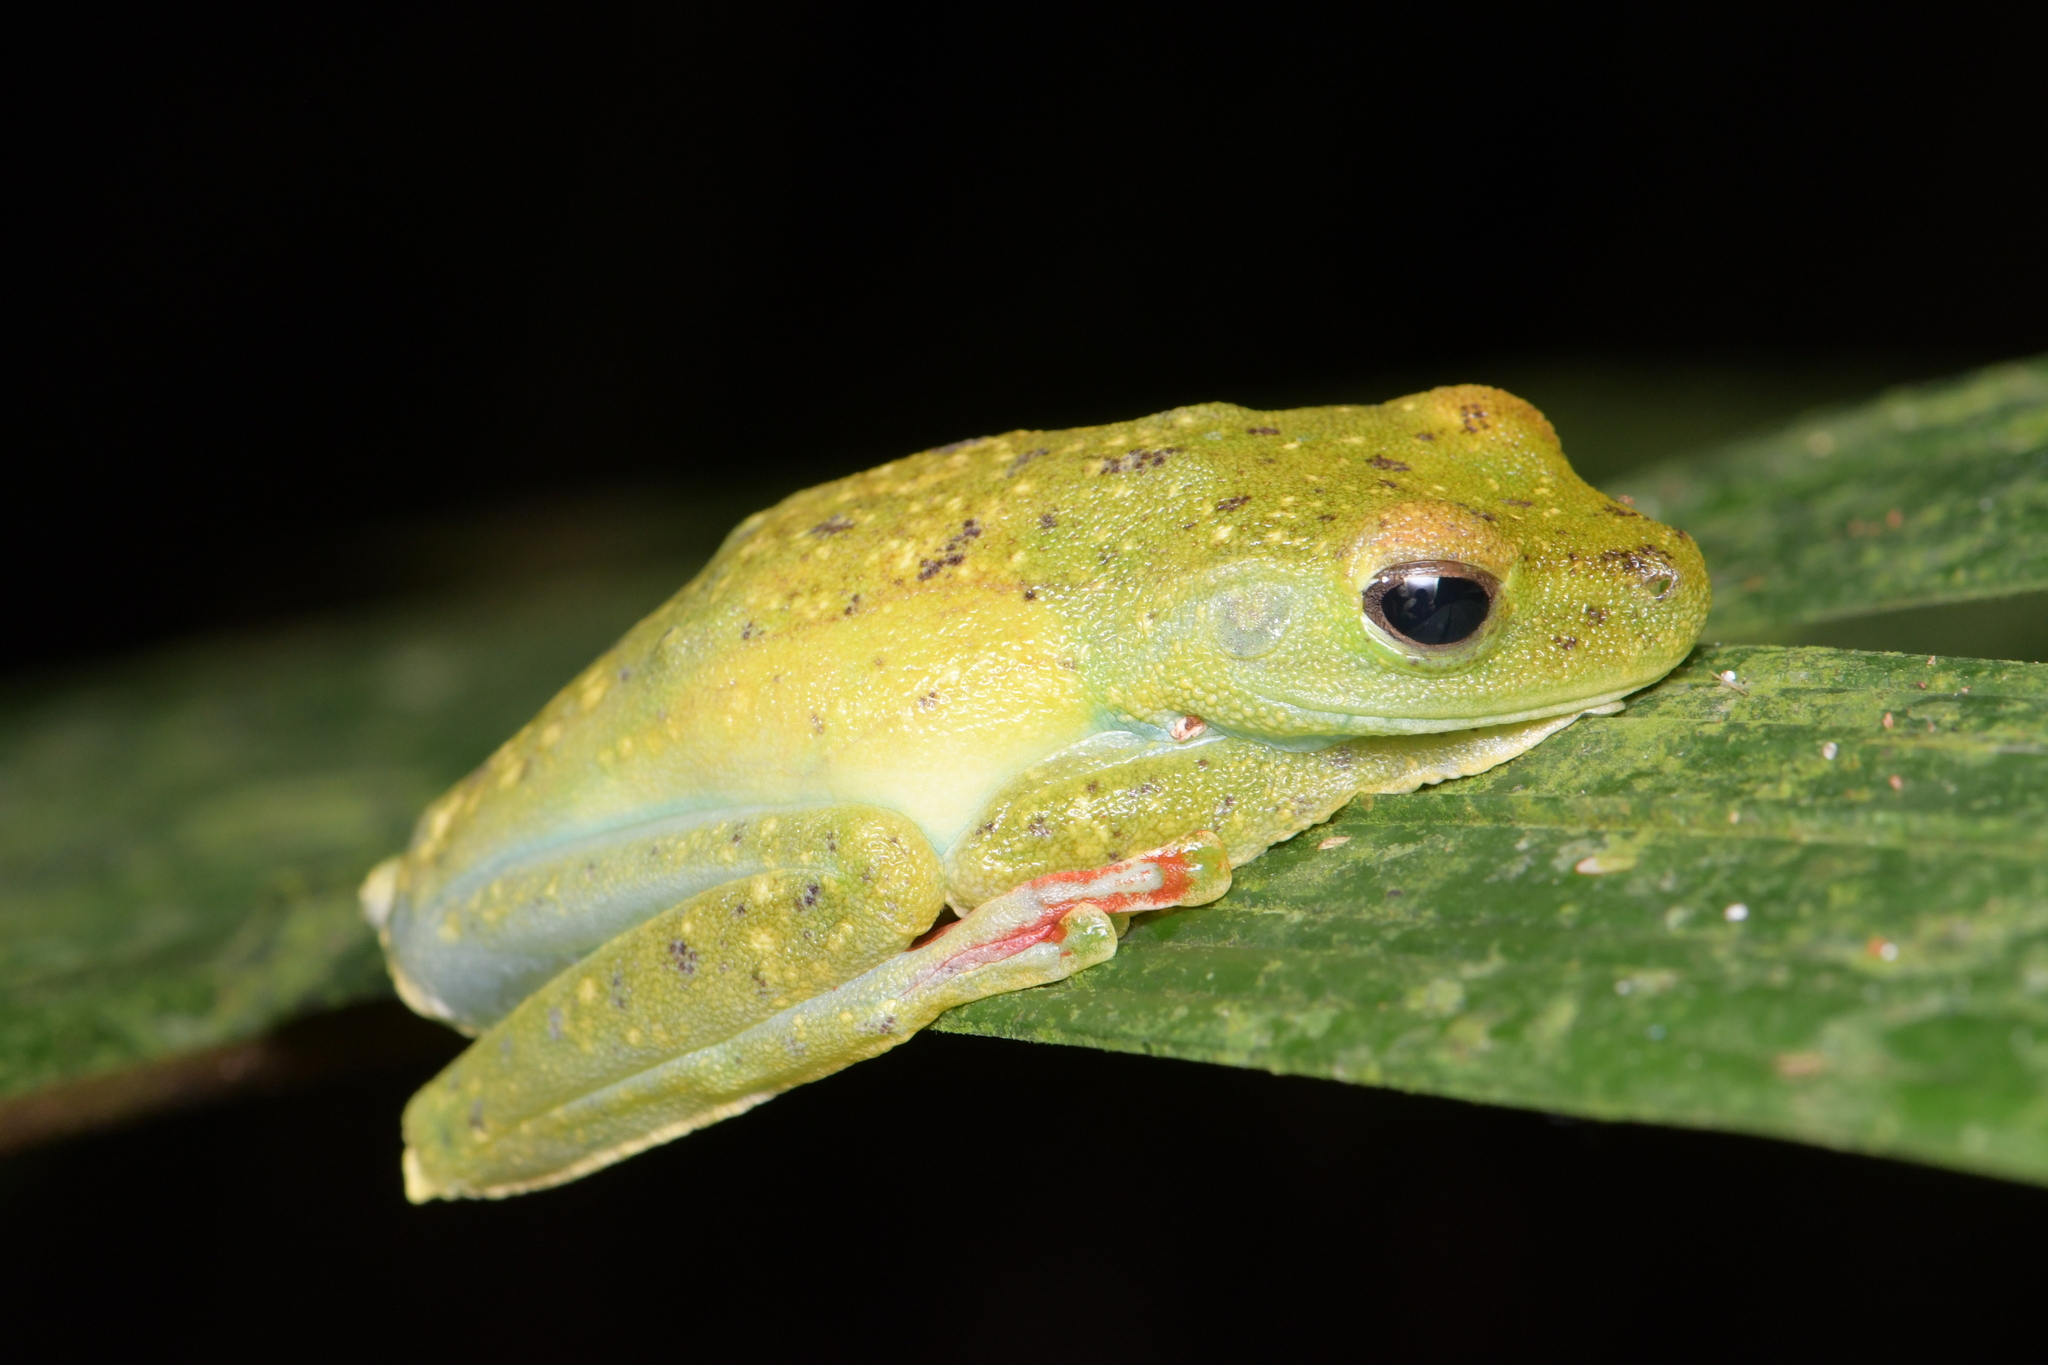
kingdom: Animalia
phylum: Chordata
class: Amphibia
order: Anura
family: Hylidae
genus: Boana
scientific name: Boana rufitela
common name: Canal zone treefrog
